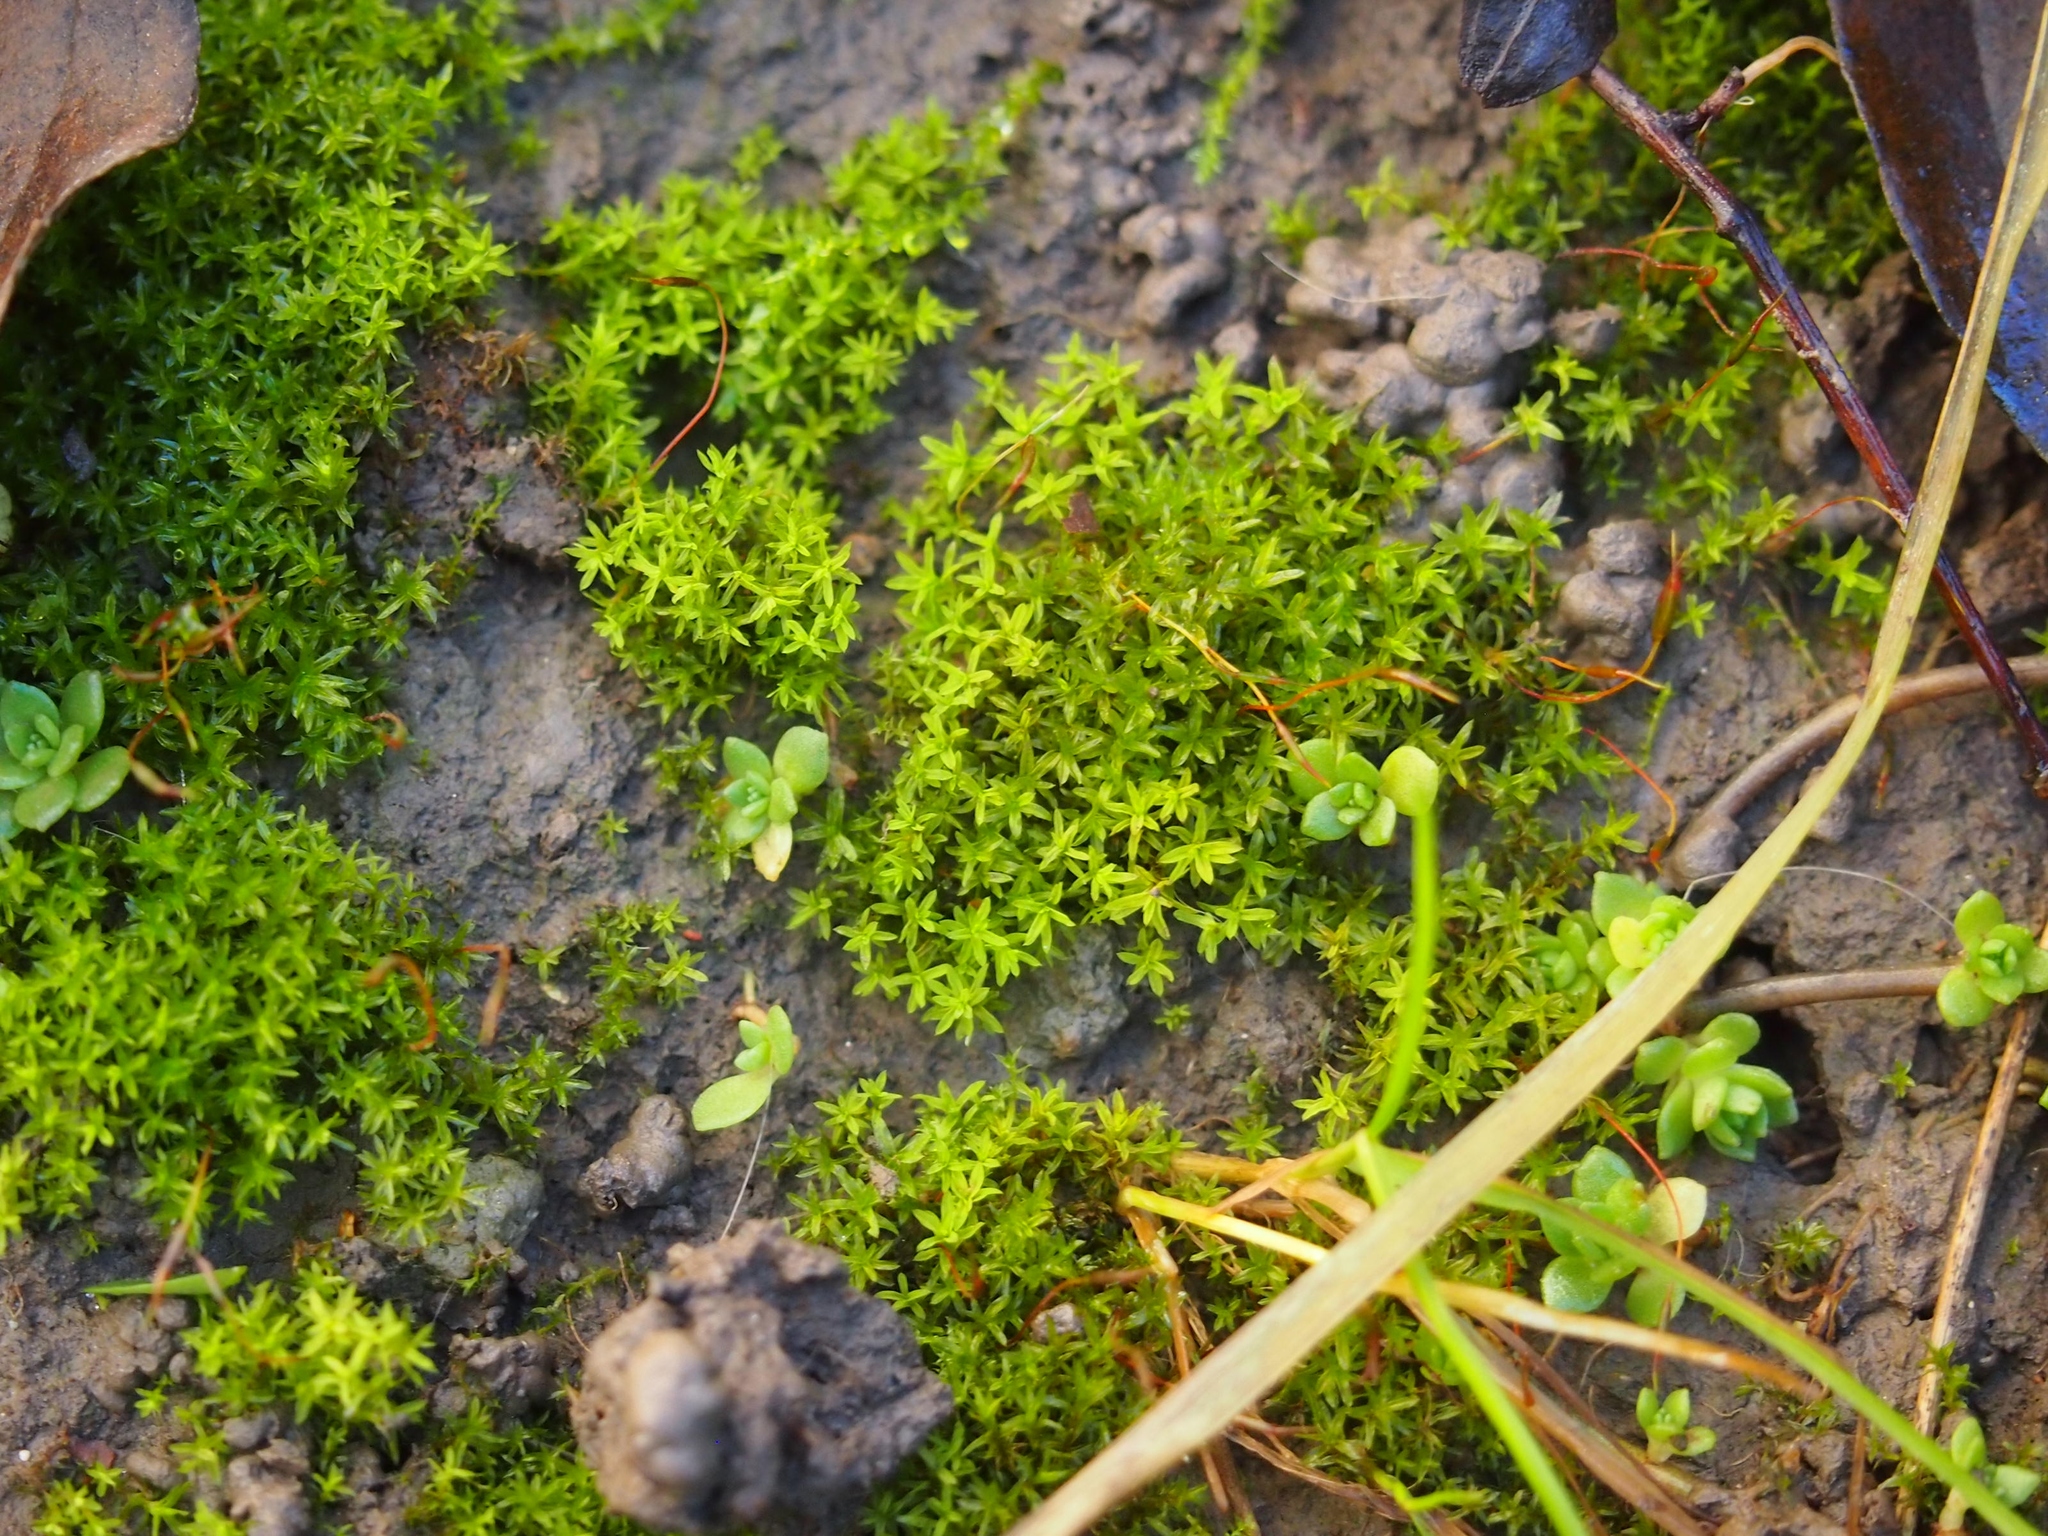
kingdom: Plantae
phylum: Bryophyta
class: Bryopsida
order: Pottiales
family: Pottiaceae
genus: Barbula
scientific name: Barbula unguiculata
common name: Prickly beard moss
